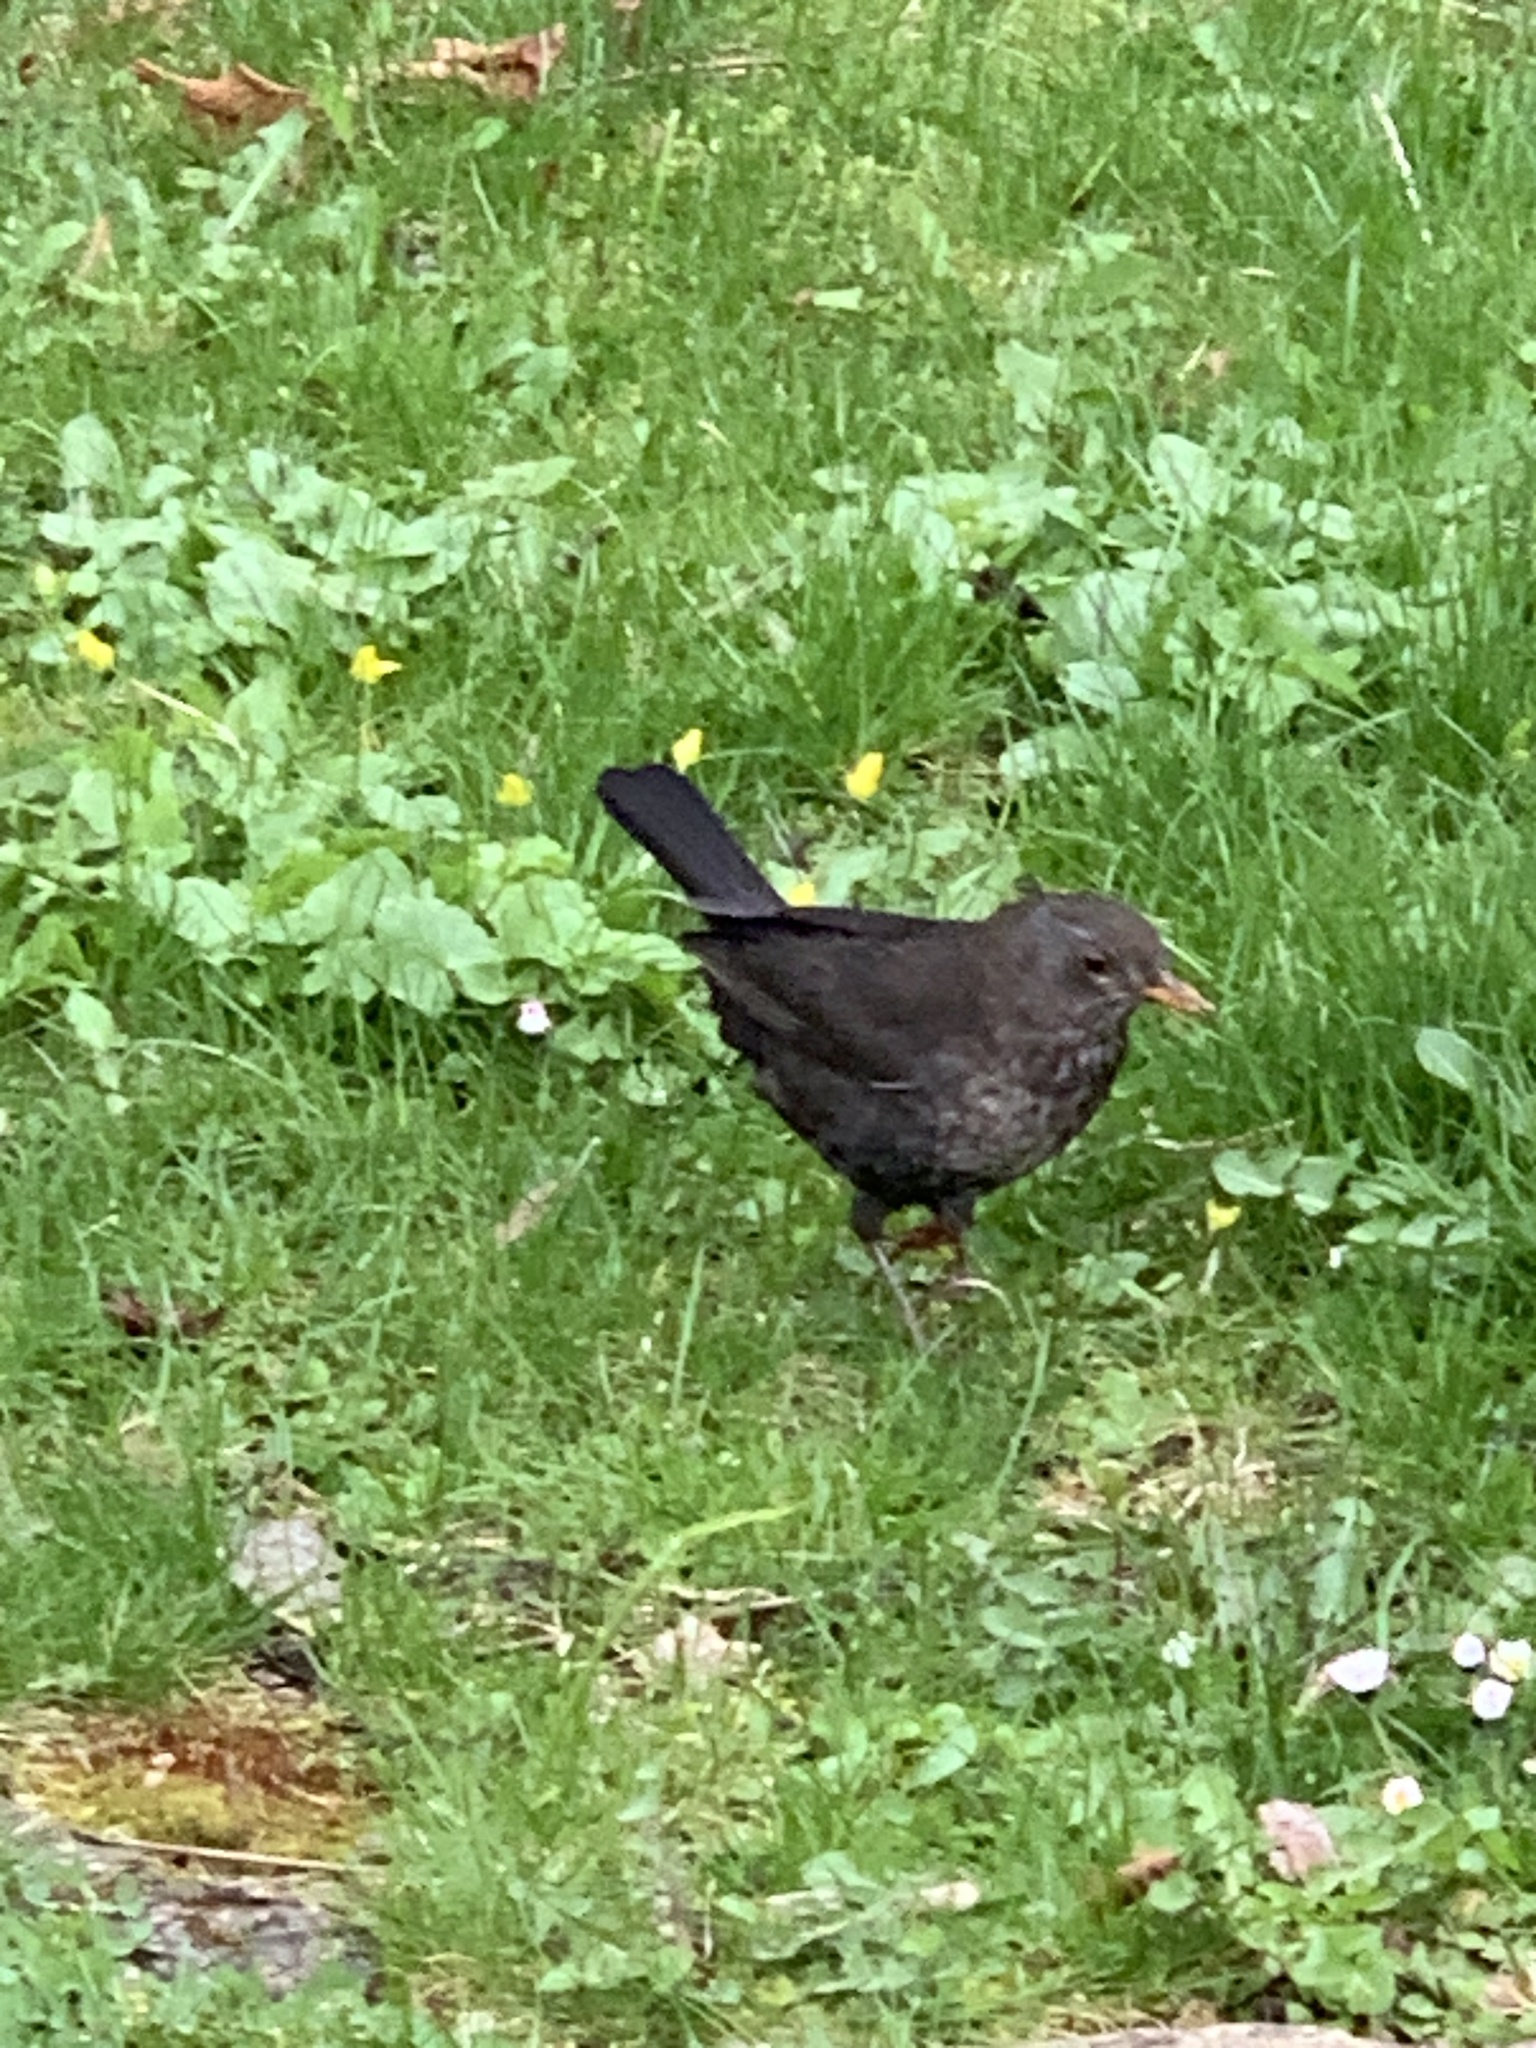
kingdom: Animalia
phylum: Chordata
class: Aves
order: Passeriformes
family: Turdidae
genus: Turdus
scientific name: Turdus merula
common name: Common blackbird
